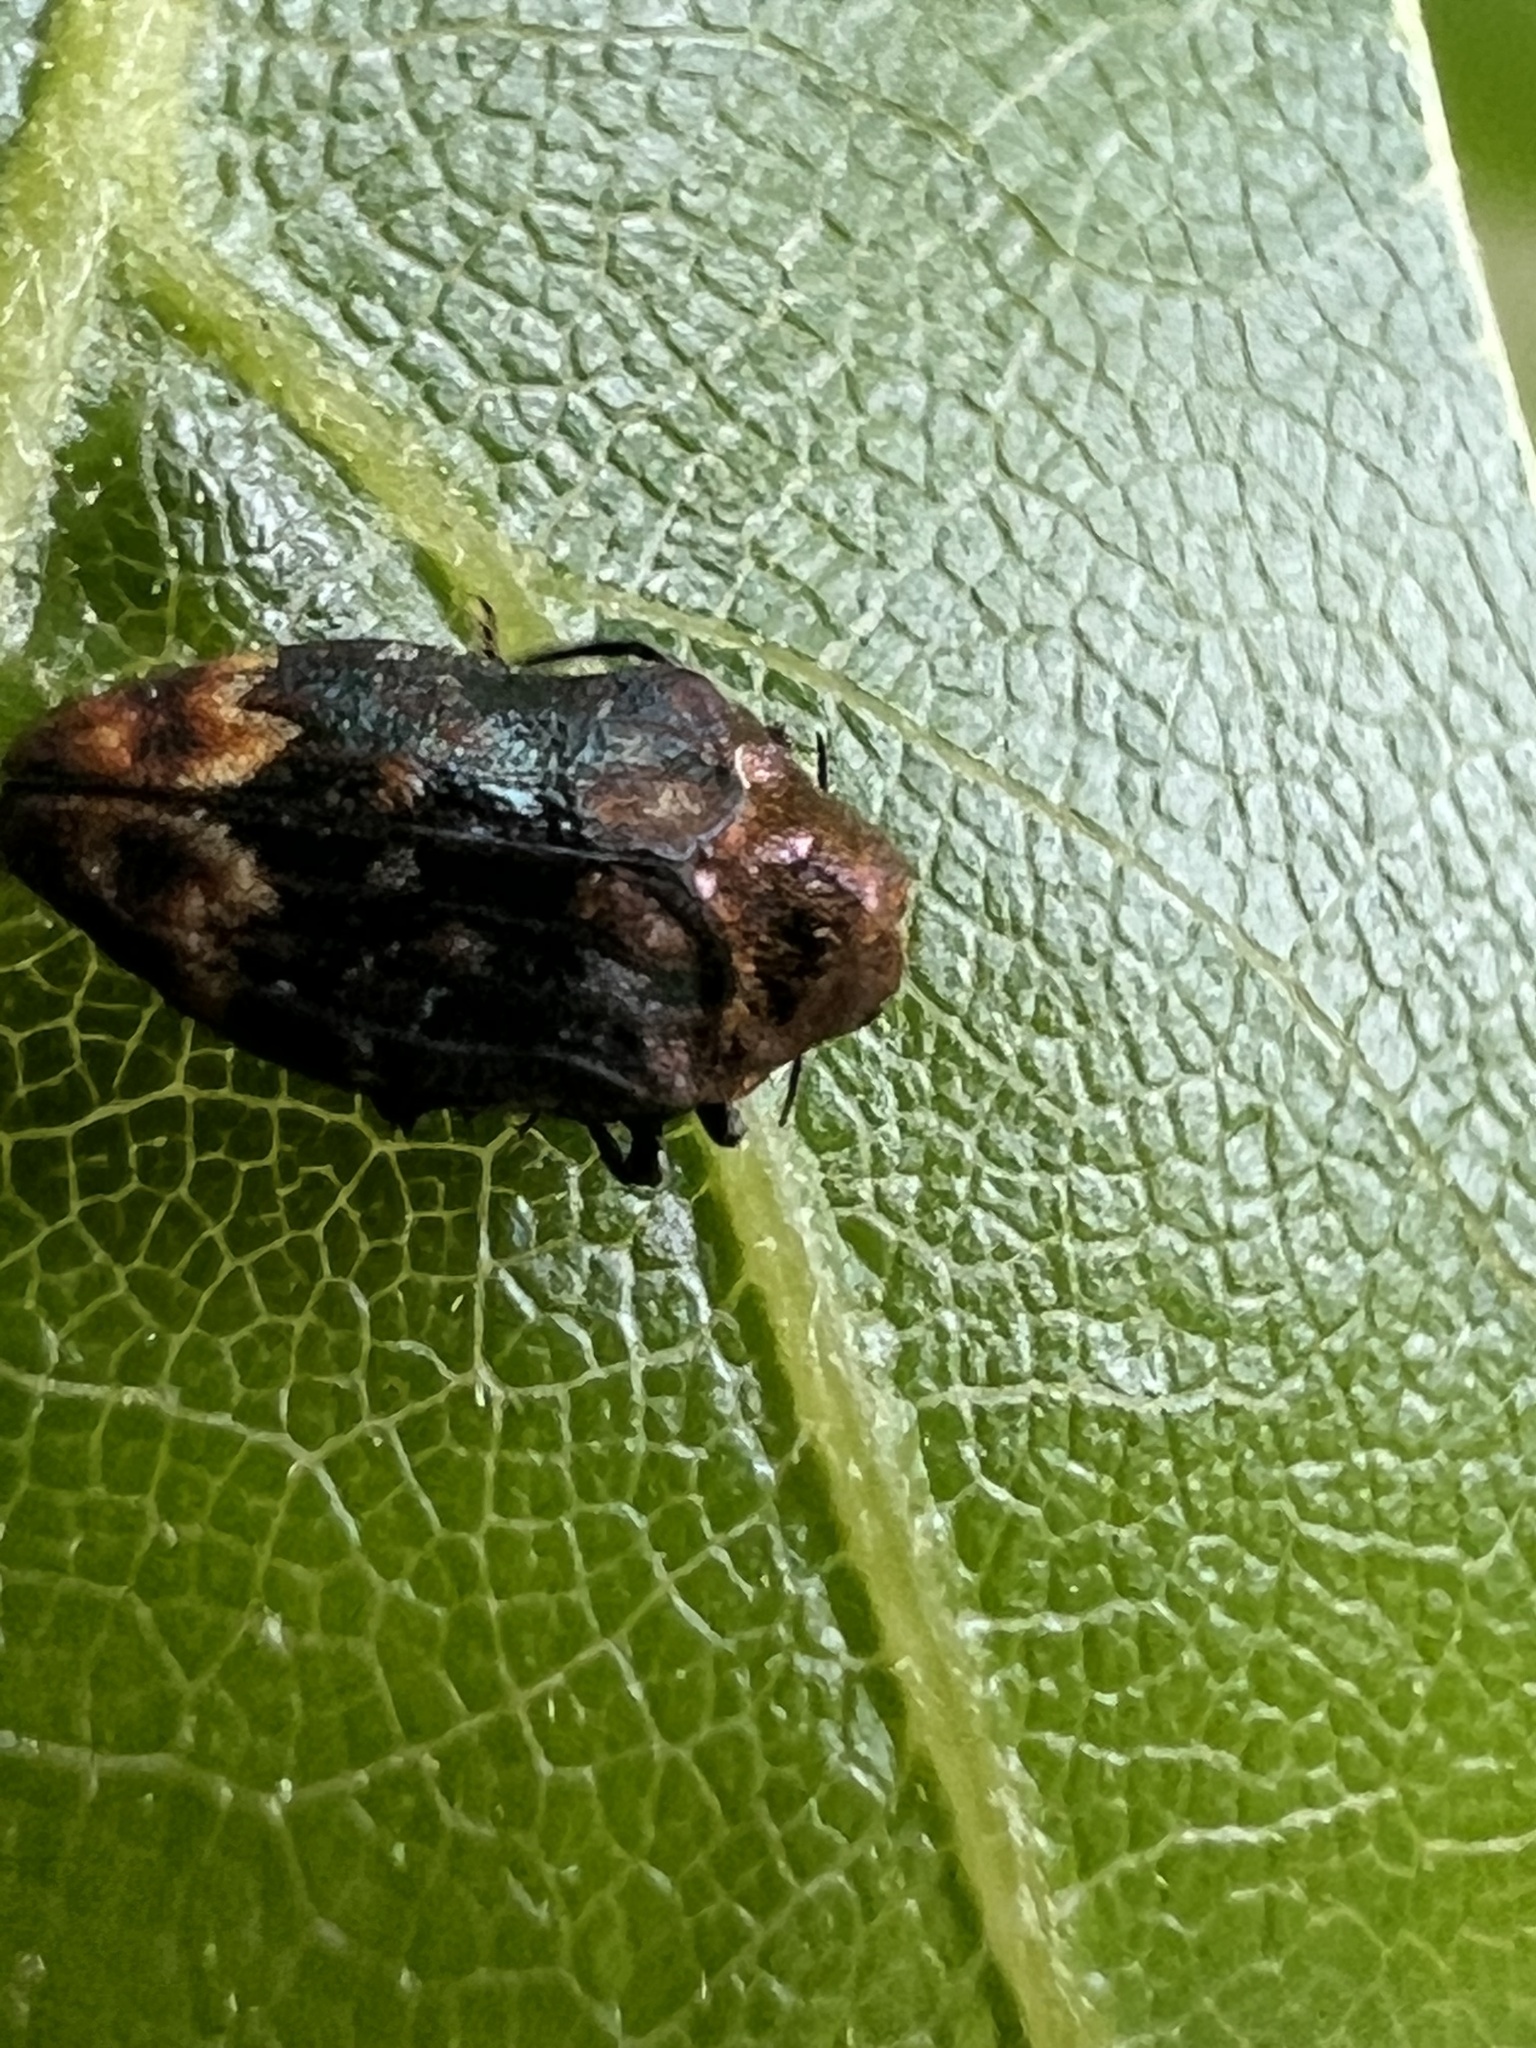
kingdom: Animalia
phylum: Arthropoda
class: Insecta
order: Coleoptera
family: Buprestidae
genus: Brachys
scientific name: Brachys ovatus
